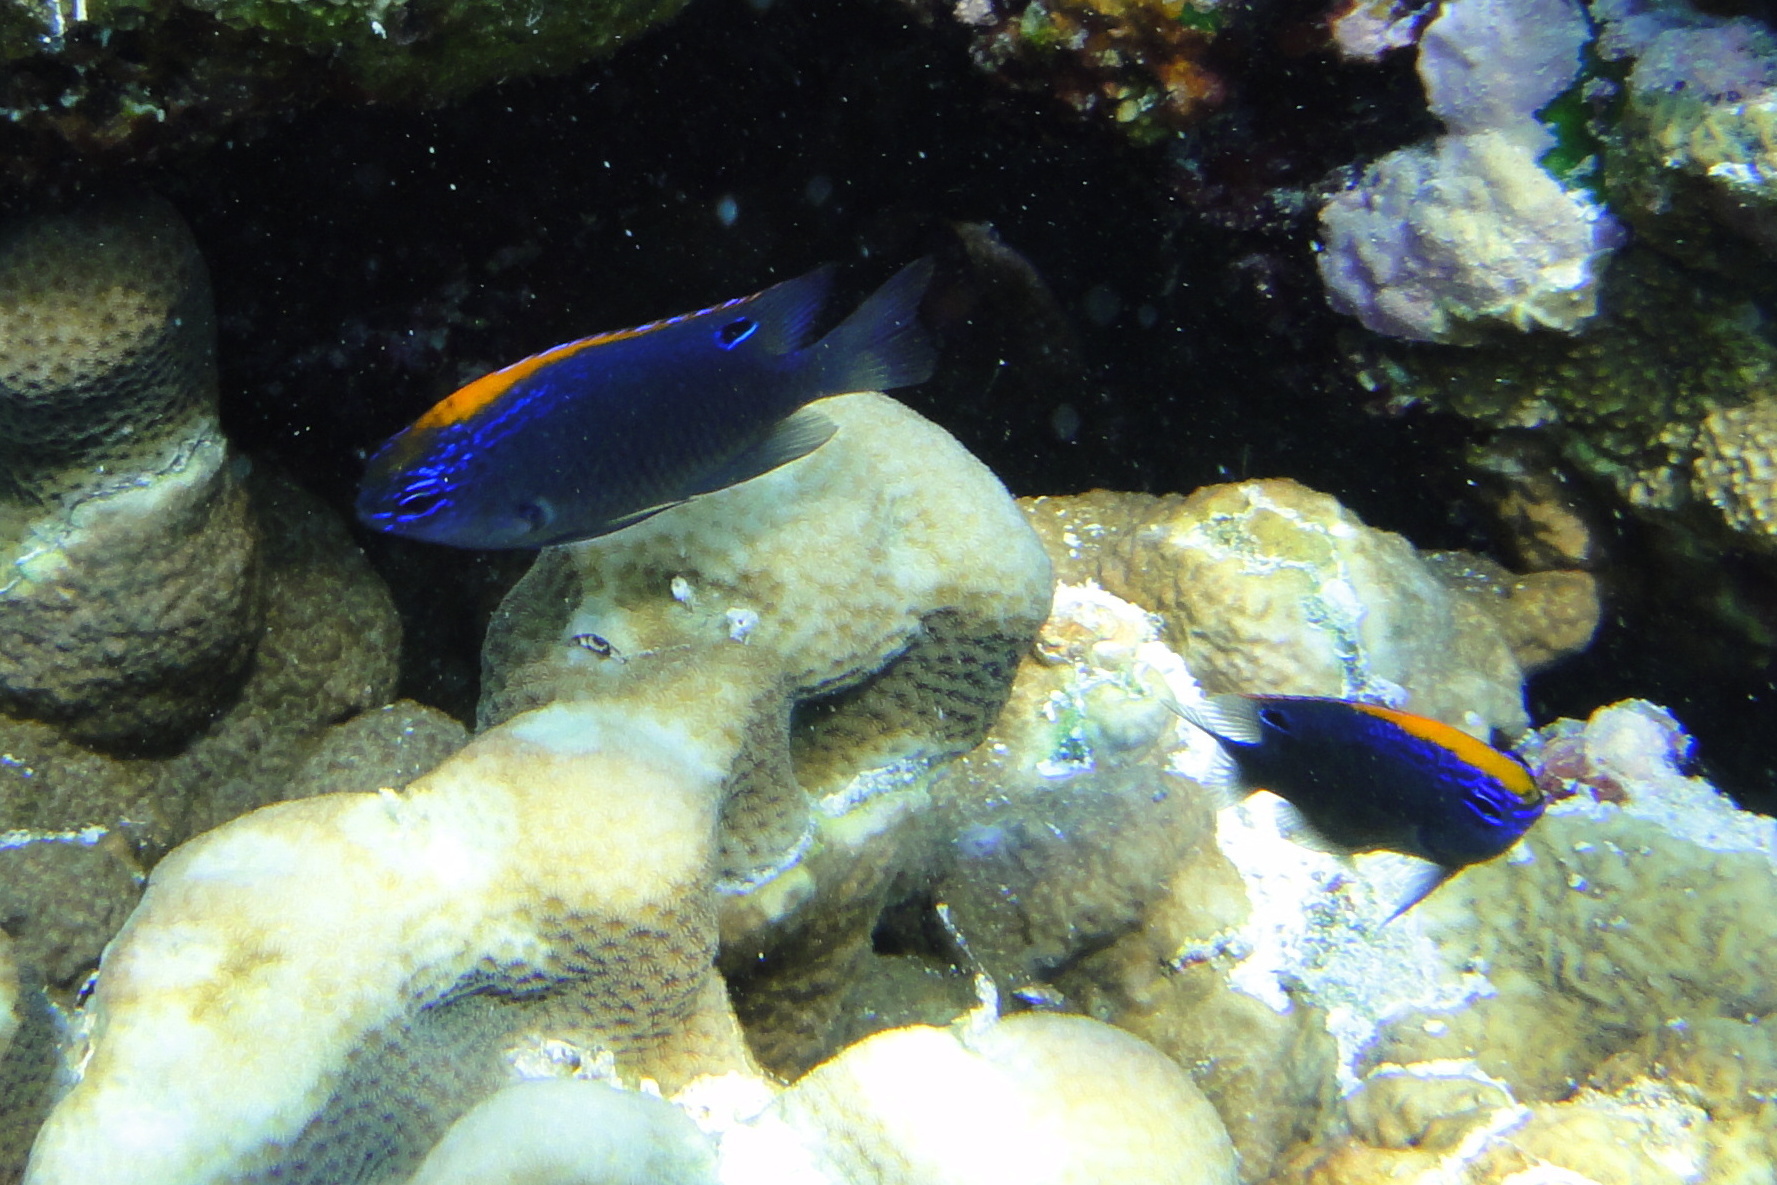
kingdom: Animalia
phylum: Chordata
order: Perciformes
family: Pomacentridae
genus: Pomacentrus
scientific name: Pomacentrus indicus
